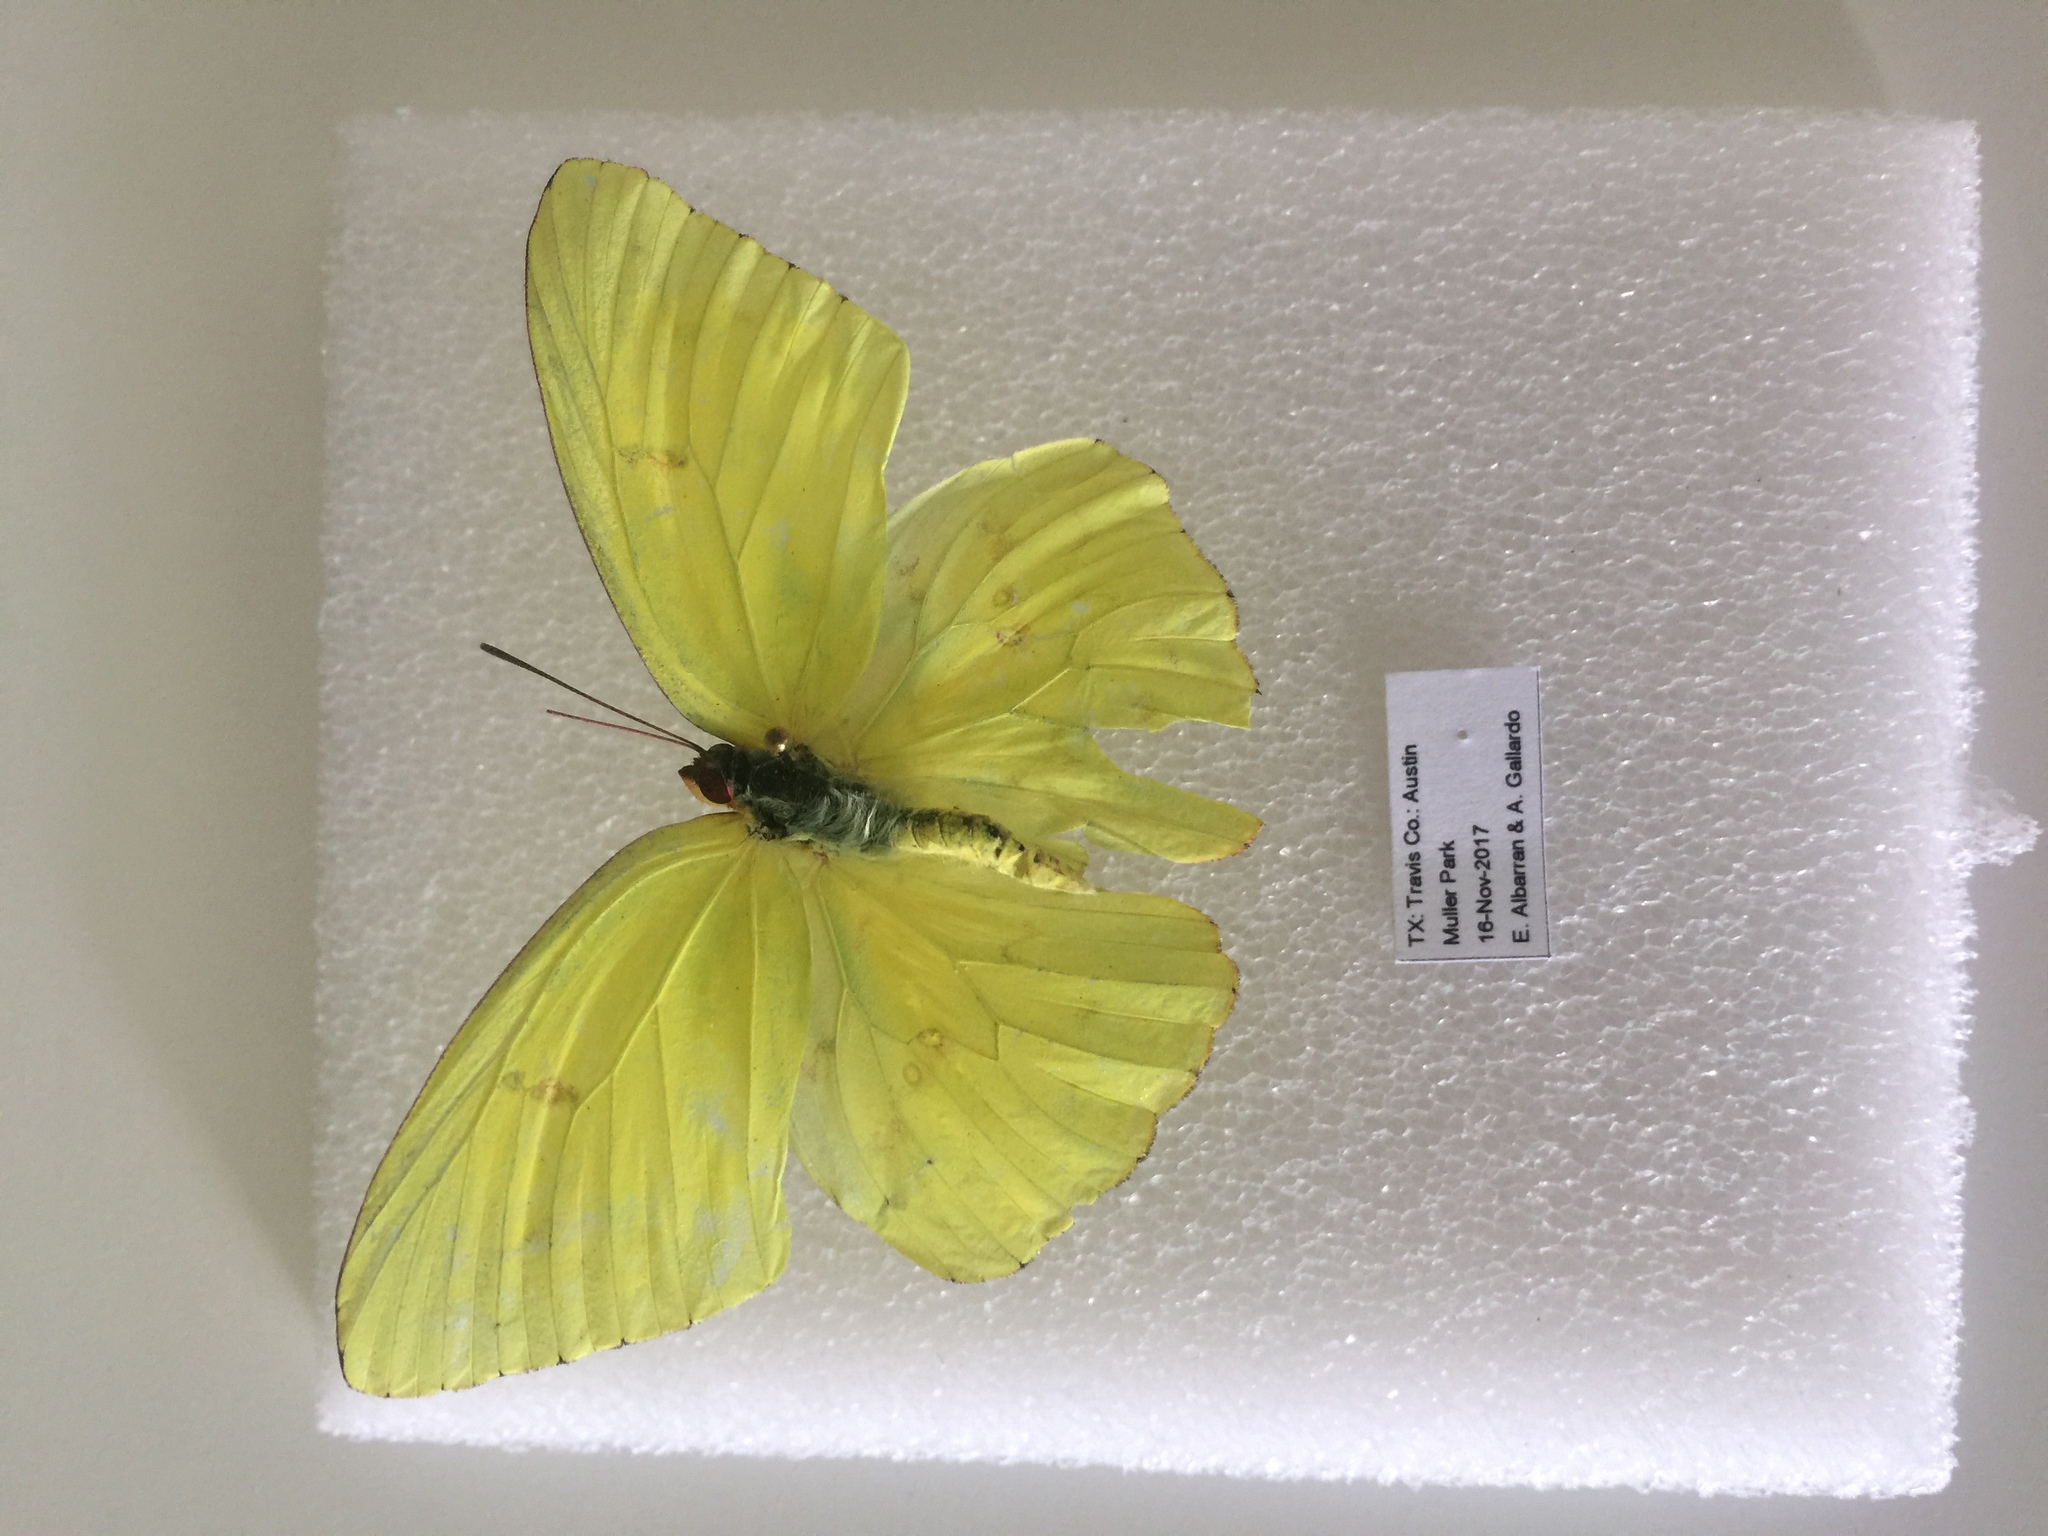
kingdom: Animalia
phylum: Arthropoda
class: Insecta
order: Lepidoptera
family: Pieridae
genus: Phoebis
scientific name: Phoebis sennae
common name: Cloudless sulphur
